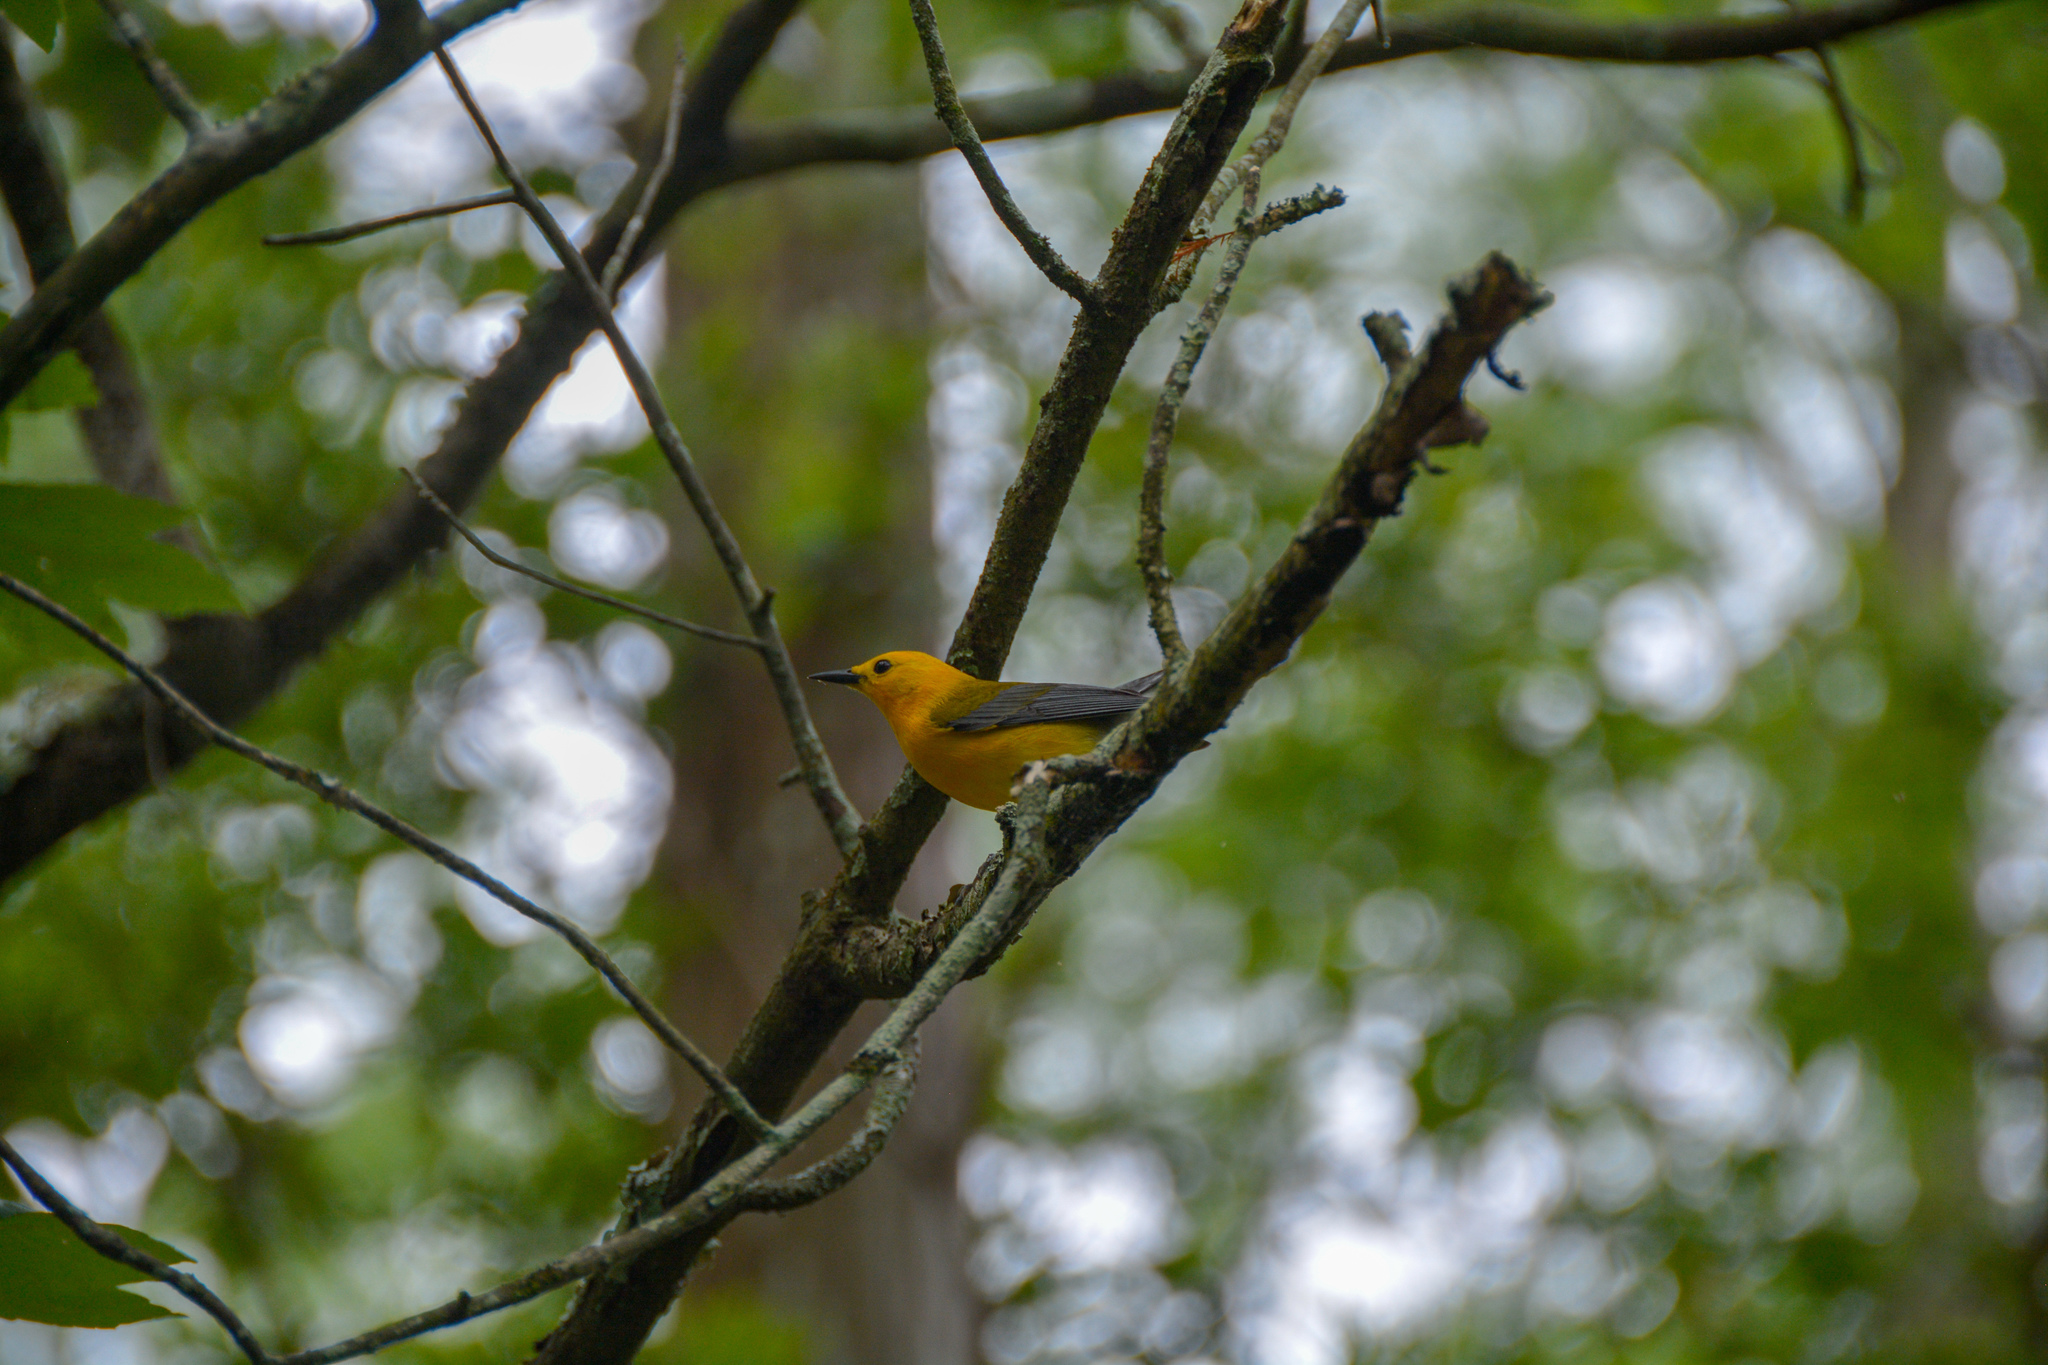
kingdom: Animalia
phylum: Chordata
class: Aves
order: Passeriformes
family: Parulidae
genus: Protonotaria
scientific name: Protonotaria citrea
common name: Prothonotary warbler
